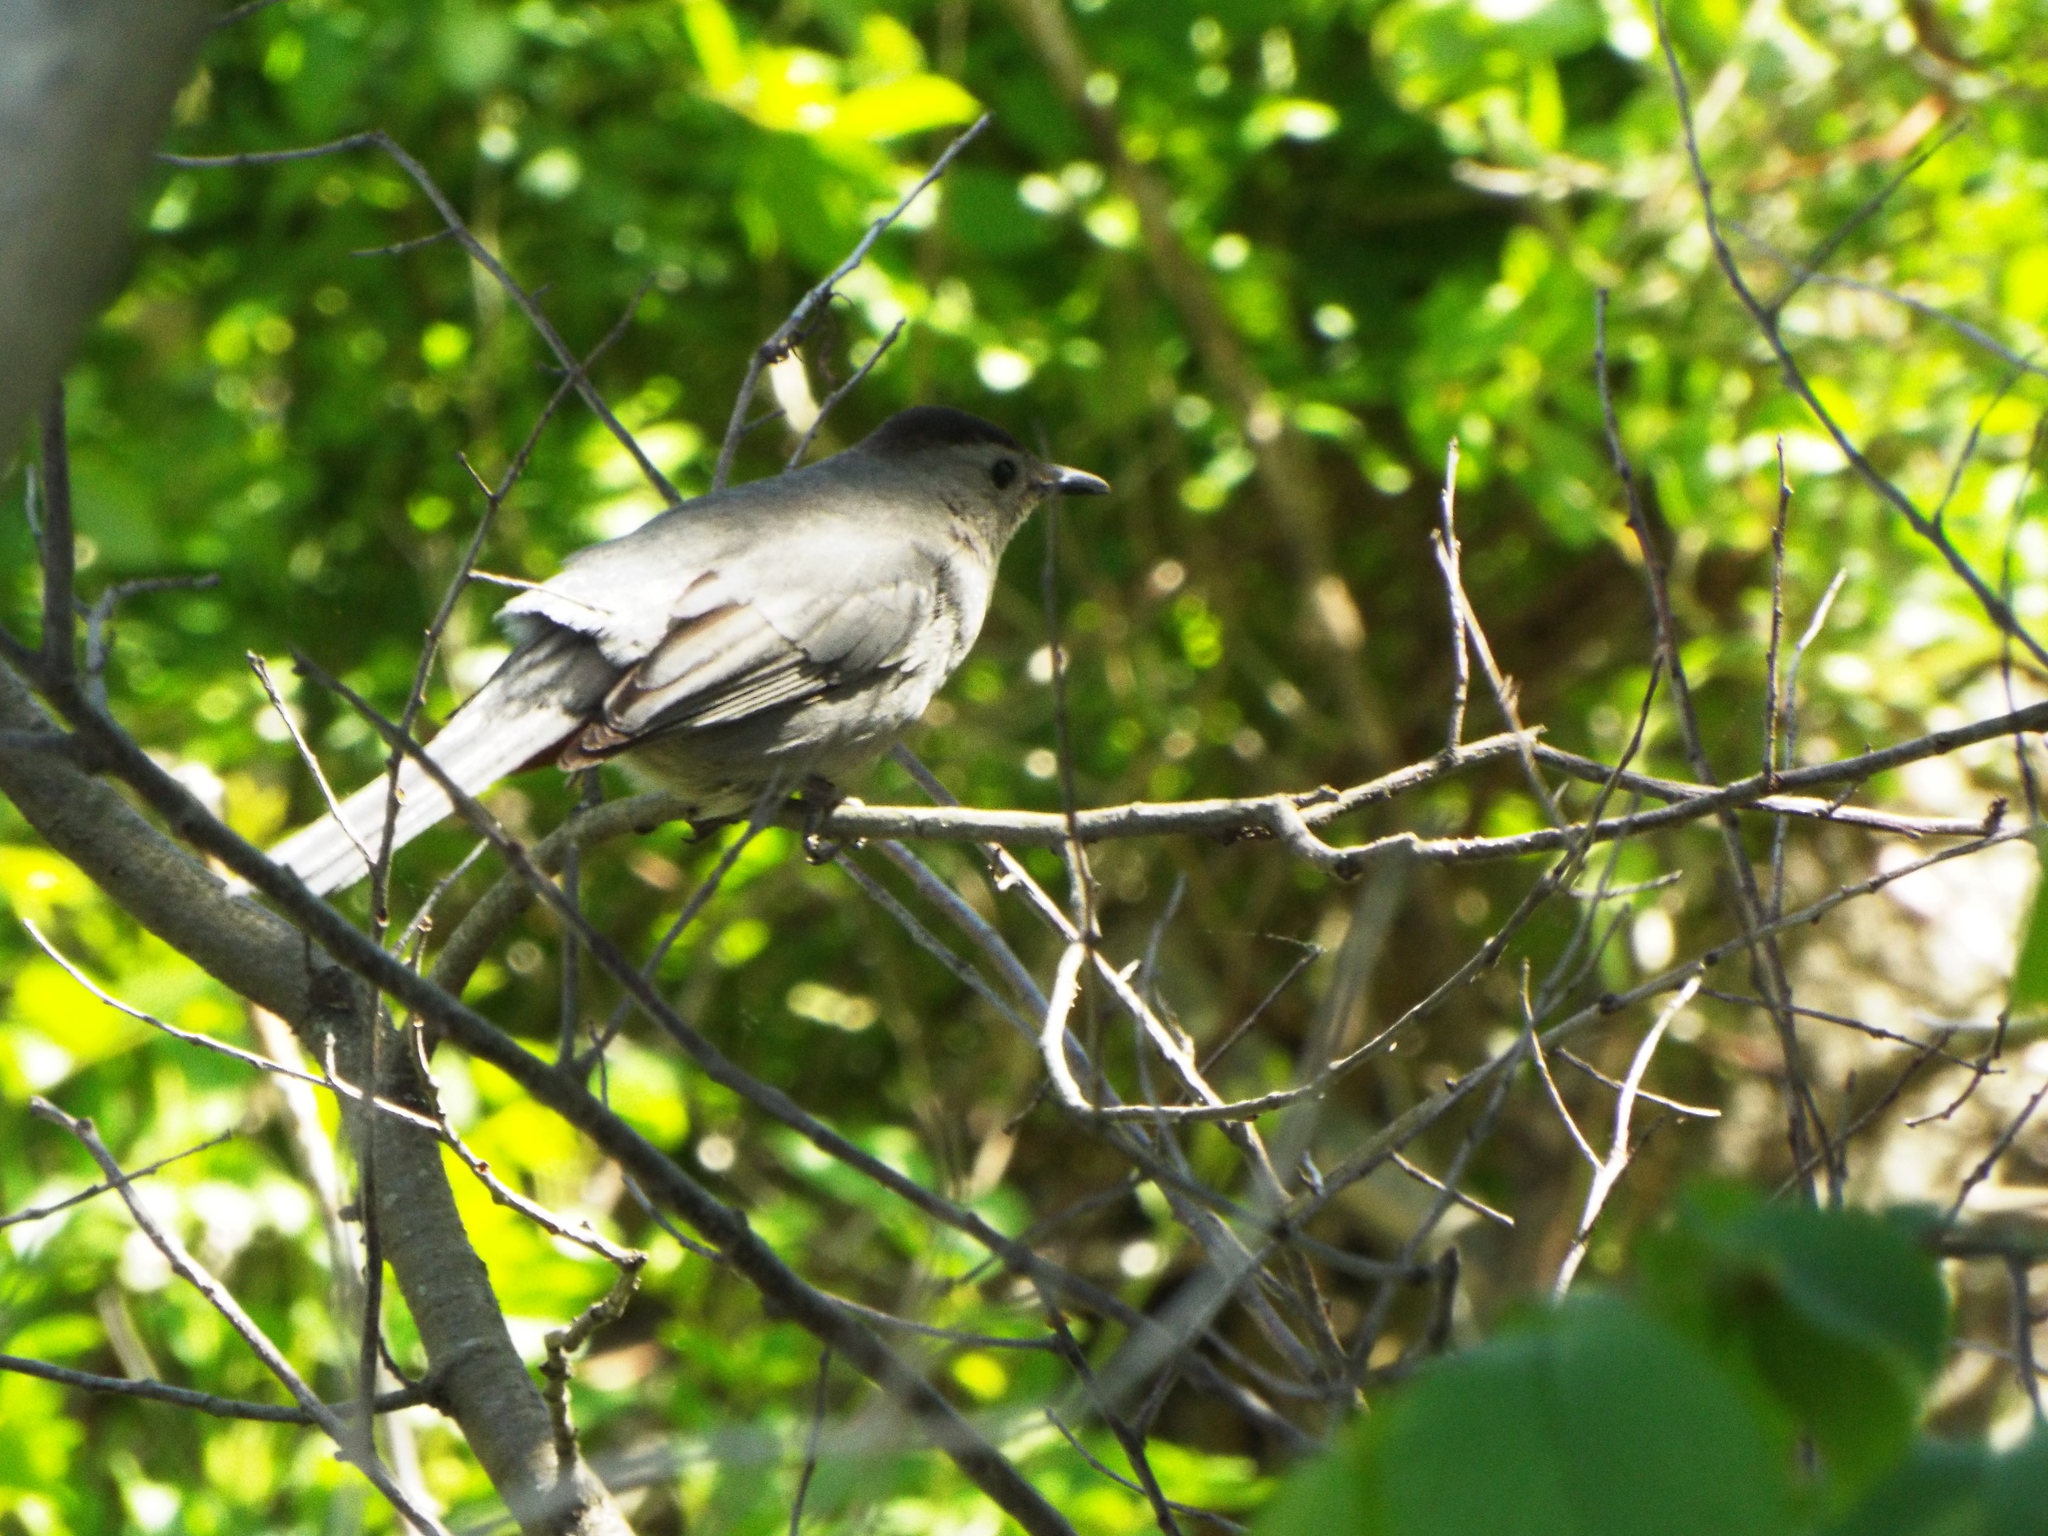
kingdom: Animalia
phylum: Chordata
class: Aves
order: Passeriformes
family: Mimidae
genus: Dumetella
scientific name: Dumetella carolinensis
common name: Gray catbird
